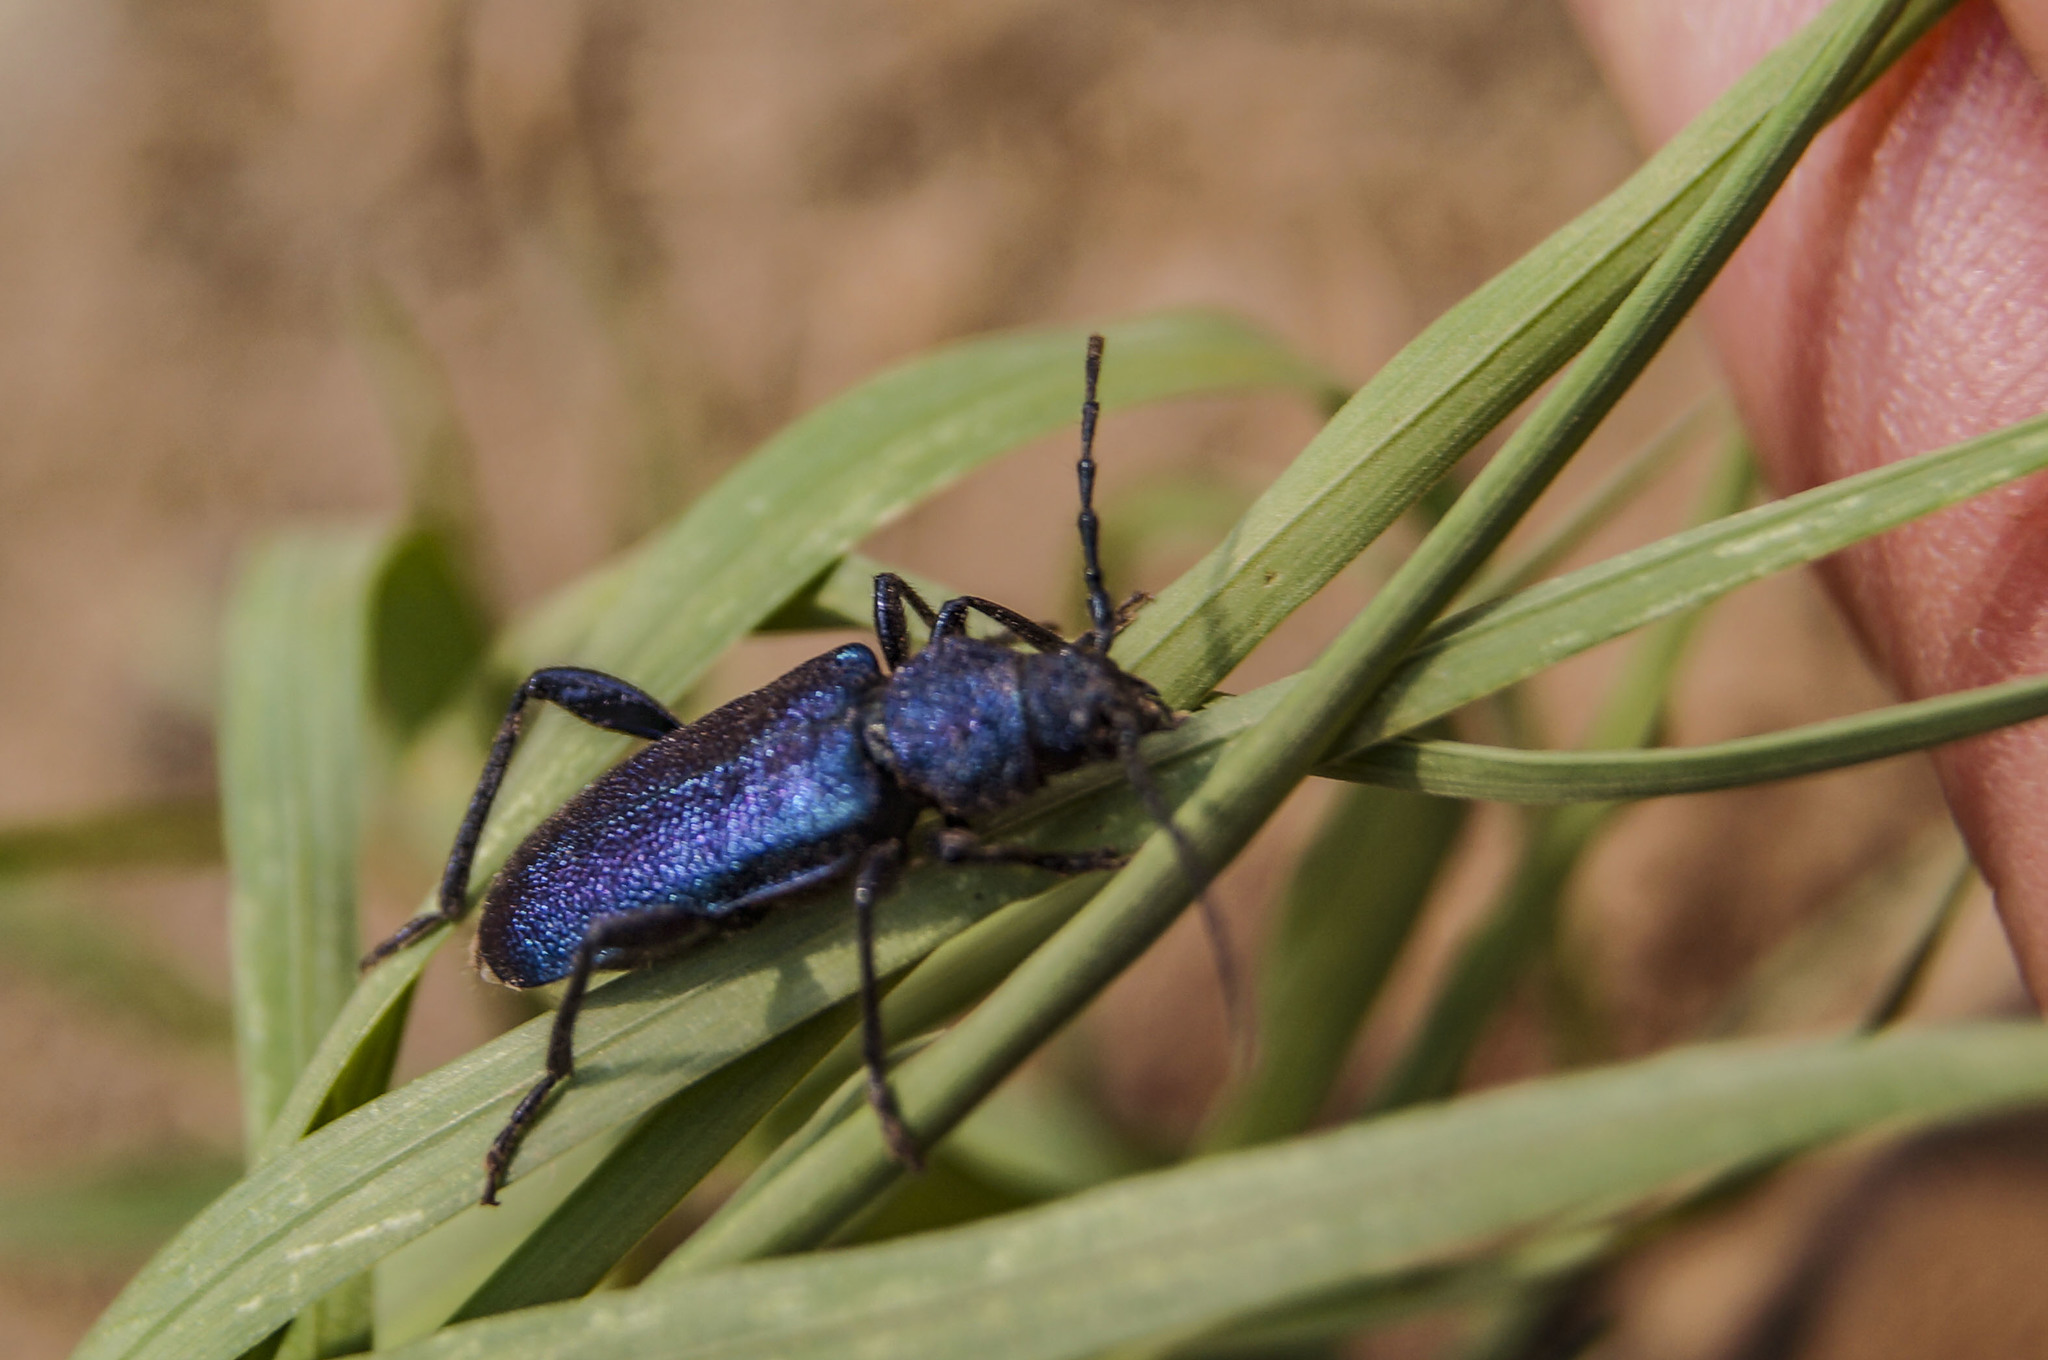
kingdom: Animalia
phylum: Arthropoda
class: Insecta
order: Coleoptera
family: Cerambycidae
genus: Callidium
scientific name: Callidium violaceum
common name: Violet tanbark beetle
